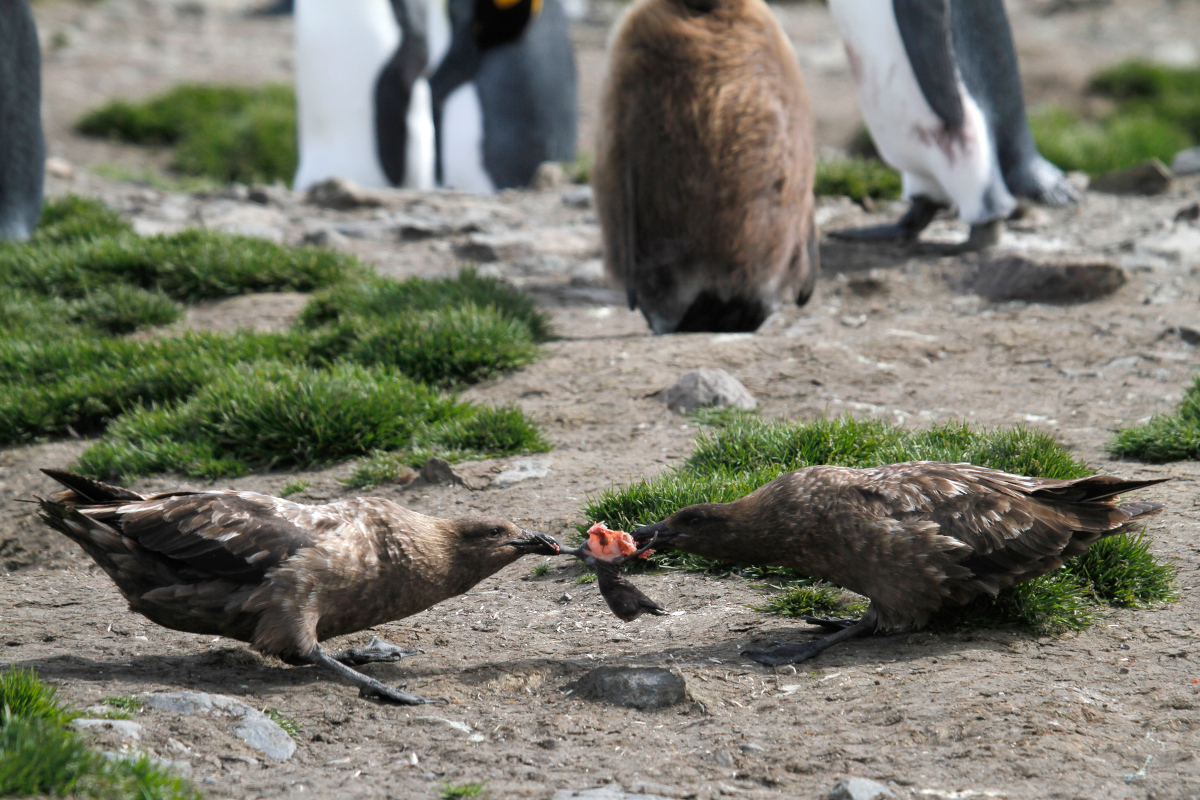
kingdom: Animalia
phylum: Chordata
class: Aves
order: Charadriiformes
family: Stercorariidae
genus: Stercorarius
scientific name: Stercorarius antarcticus
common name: Brown skua
